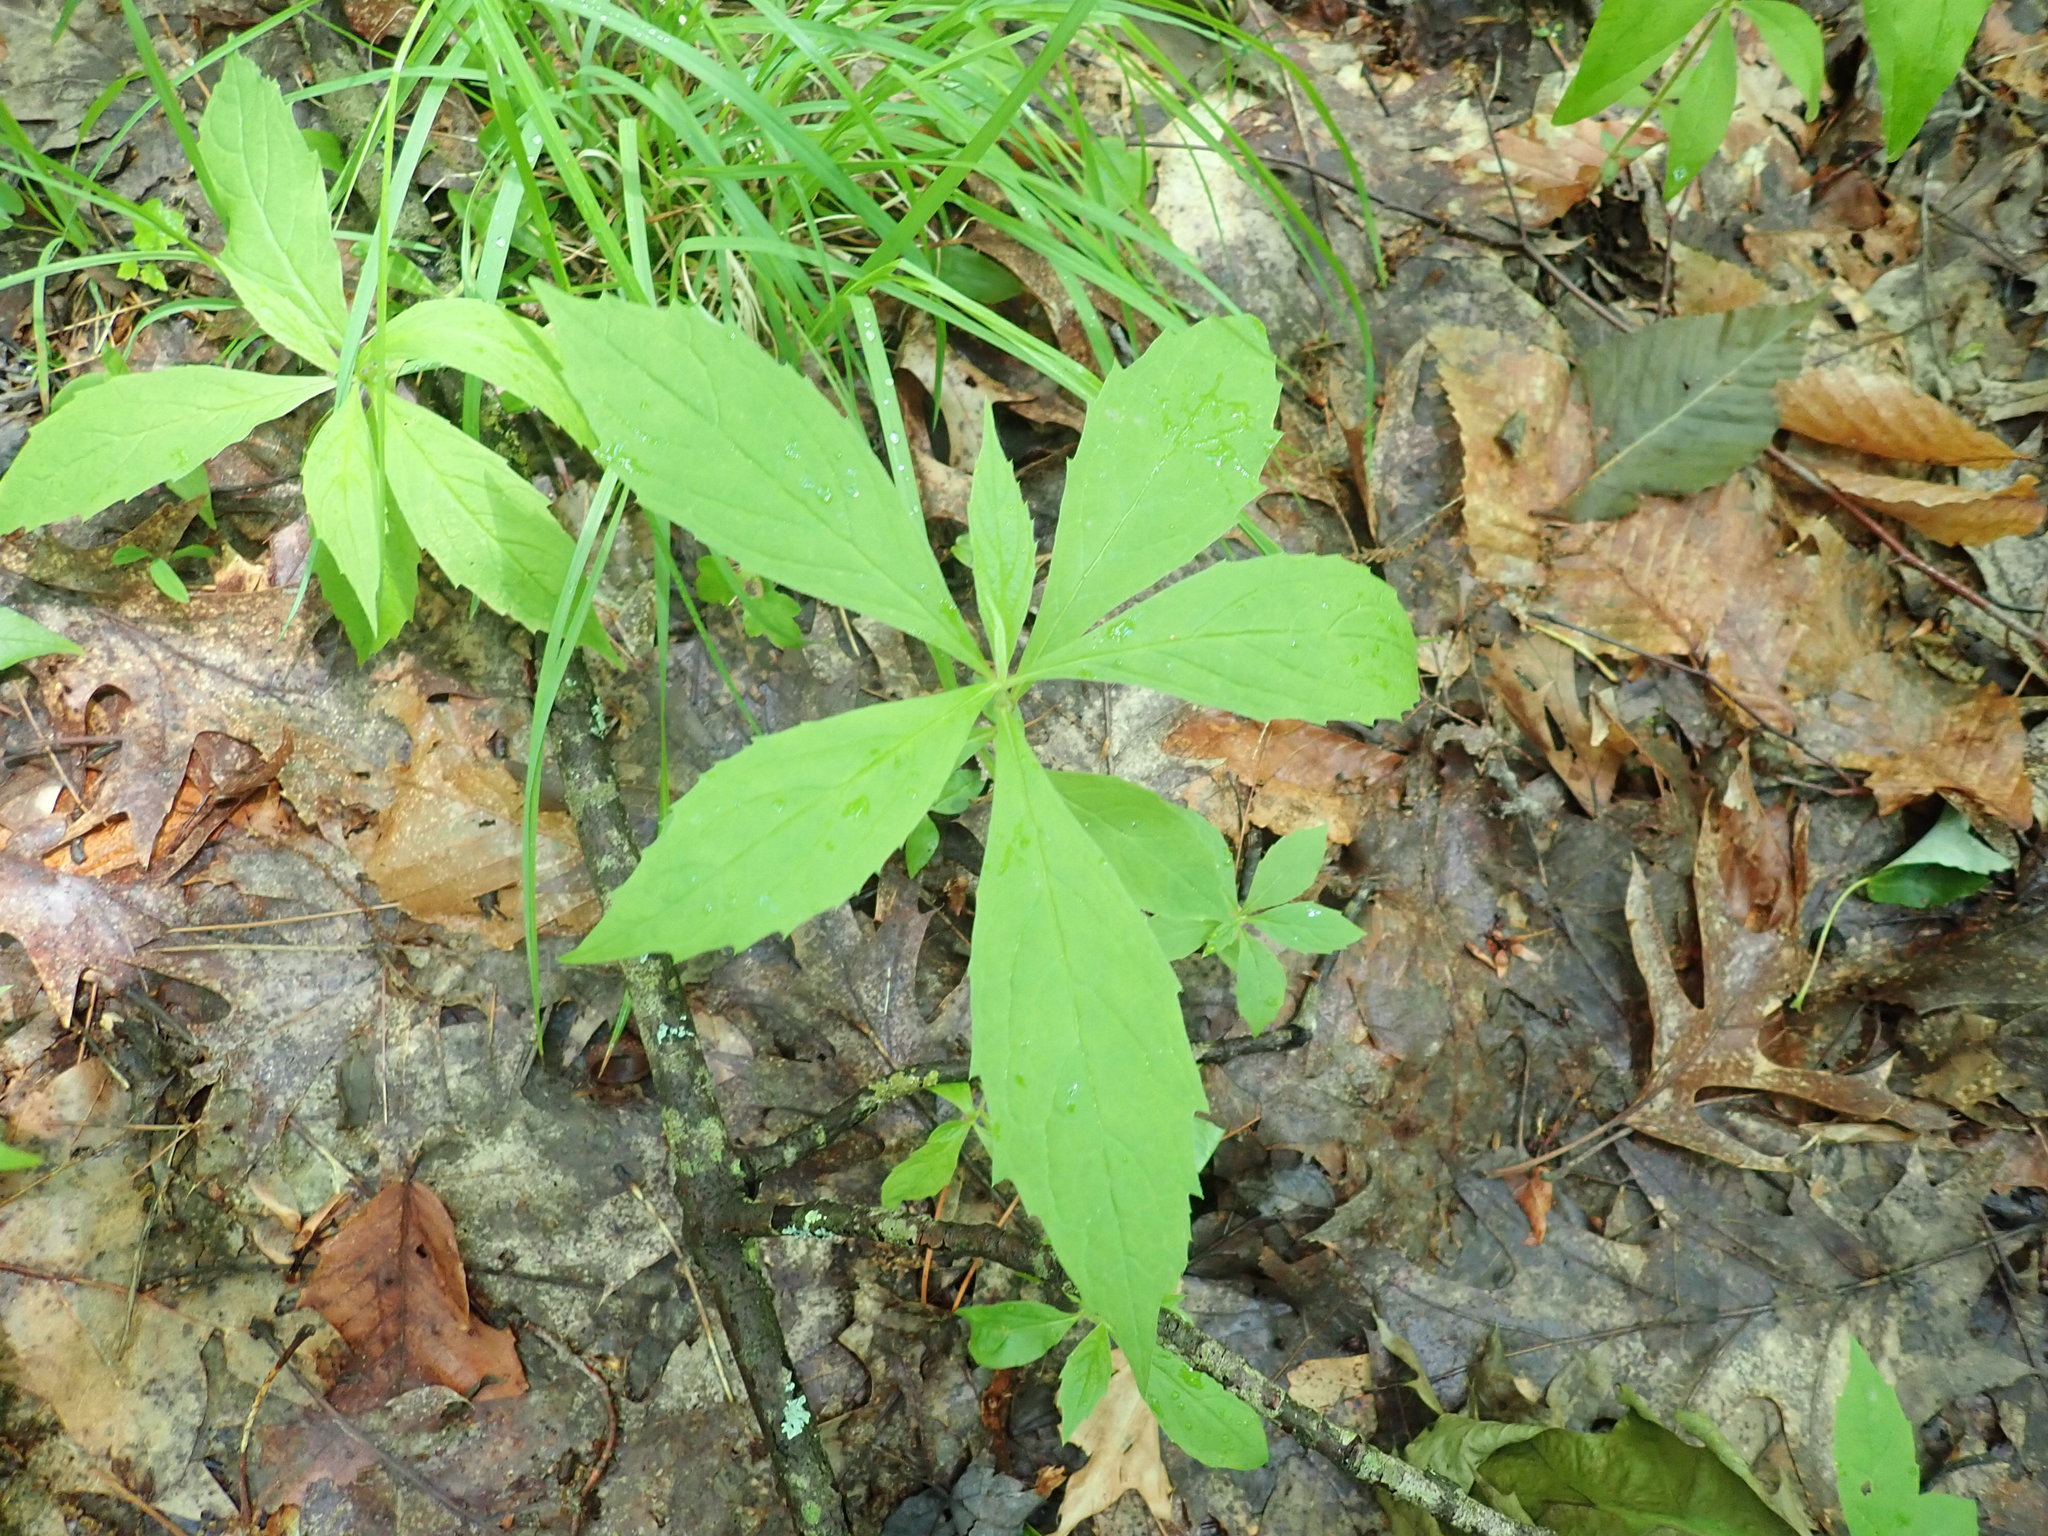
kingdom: Plantae
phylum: Tracheophyta
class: Magnoliopsida
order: Asterales
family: Asteraceae
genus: Oclemena
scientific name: Oclemena acuminata
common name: Mountain aster
